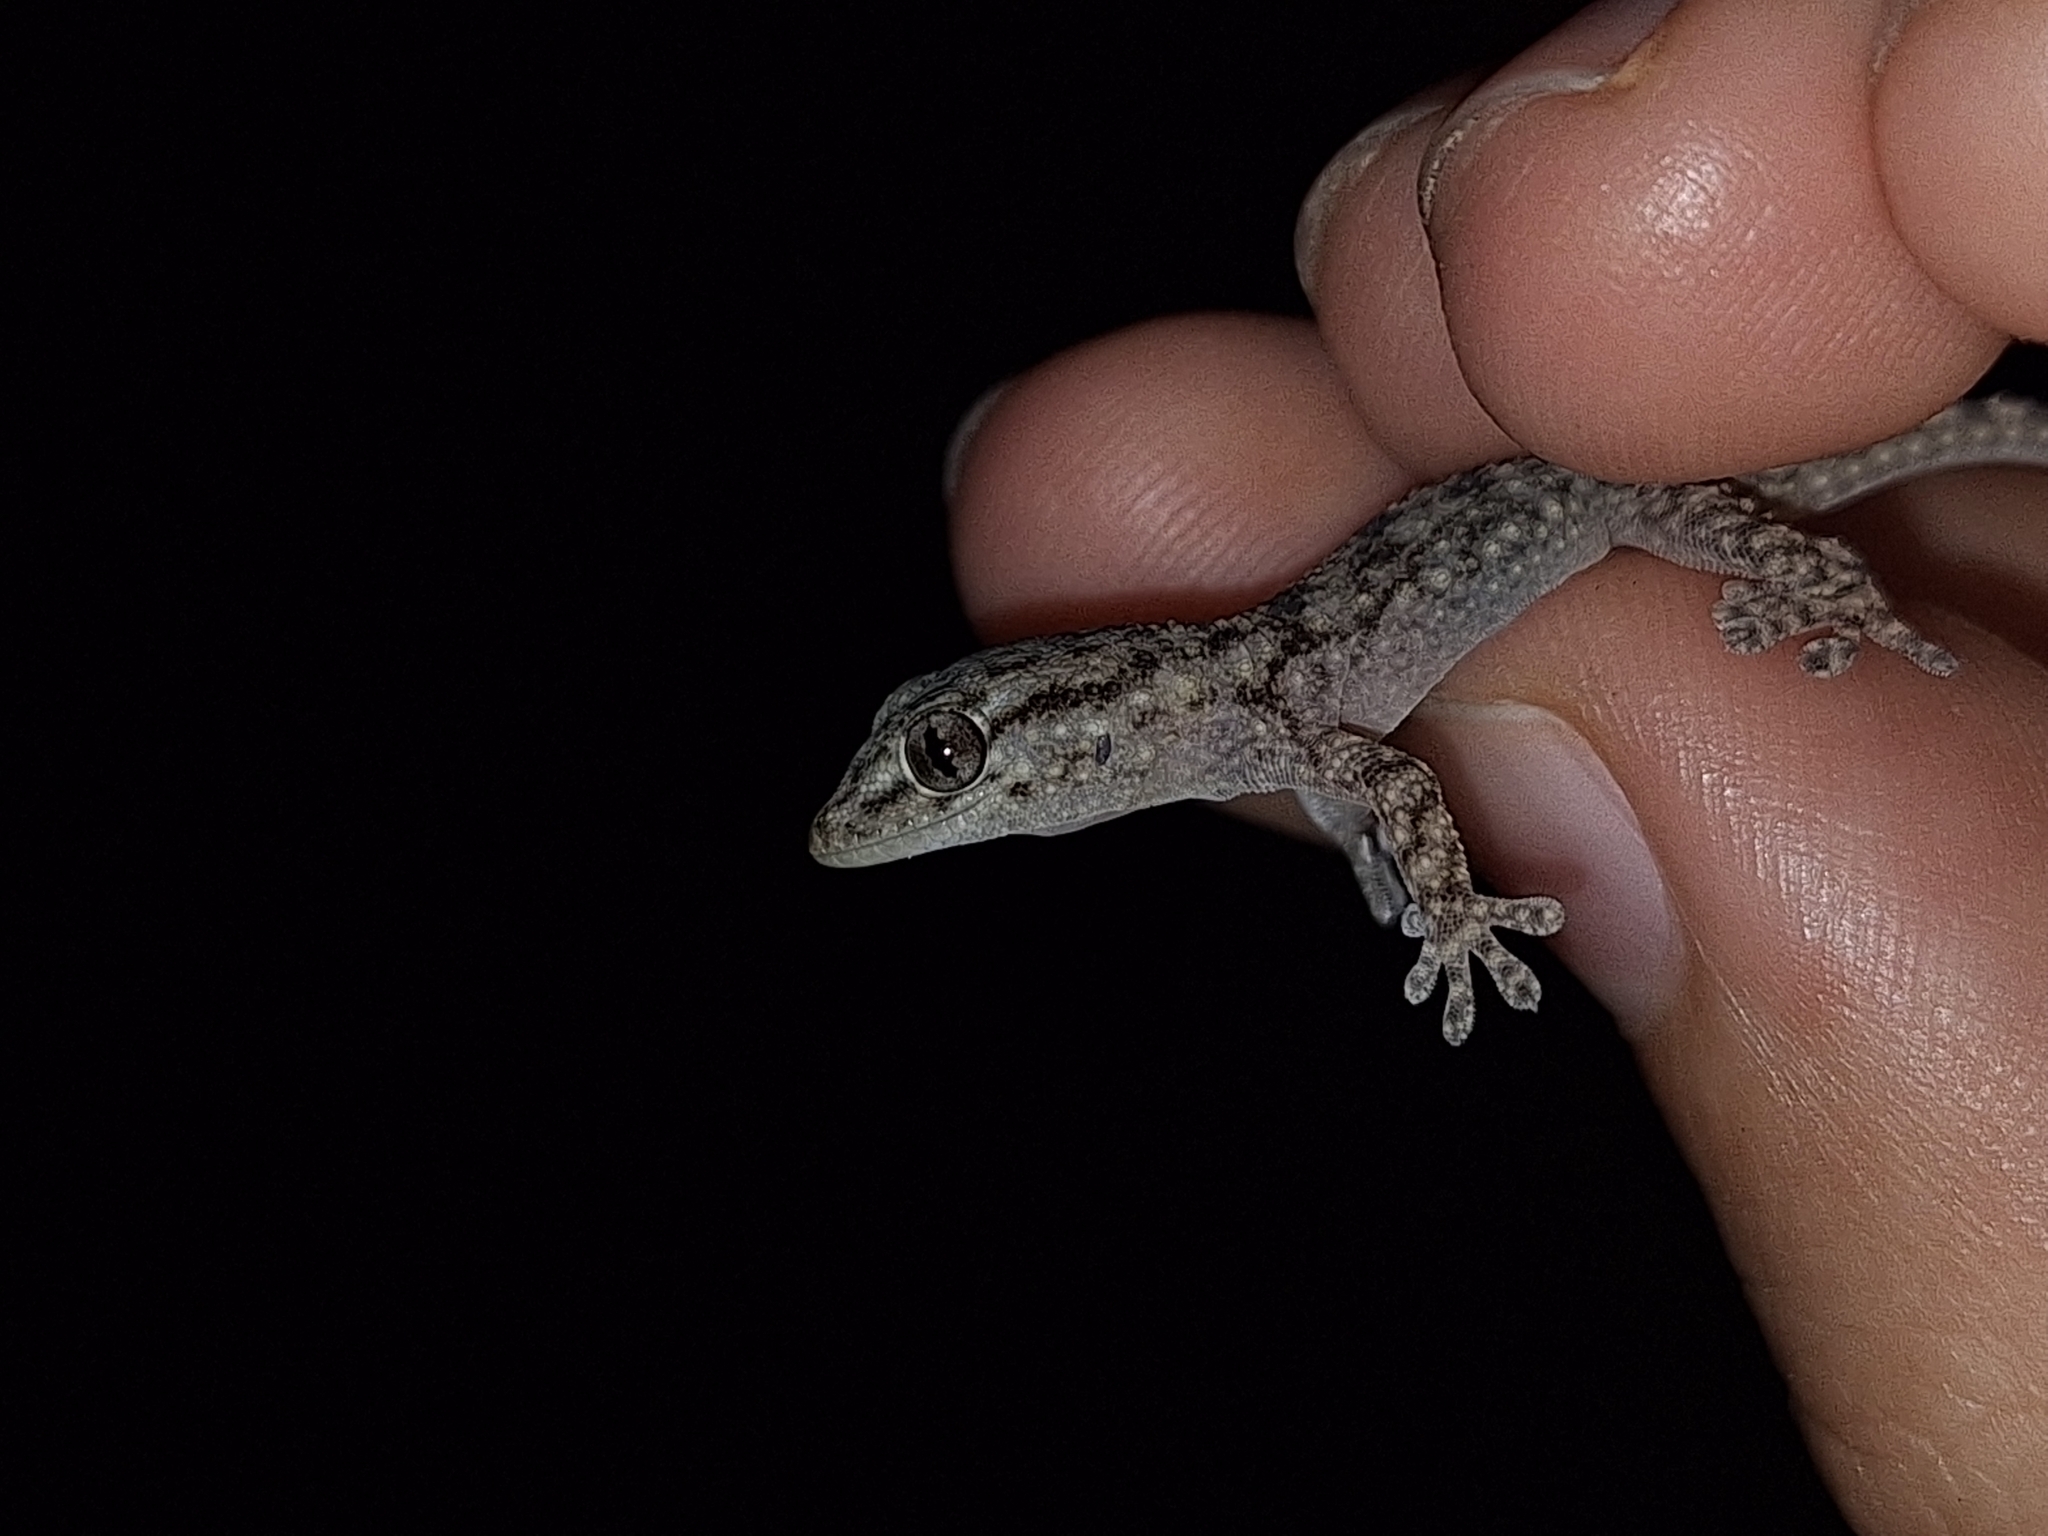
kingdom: Animalia
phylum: Chordata
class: Squamata
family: Phyllodactylidae
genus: Tarentola
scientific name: Tarentola mauritanica
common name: Moorish gecko
